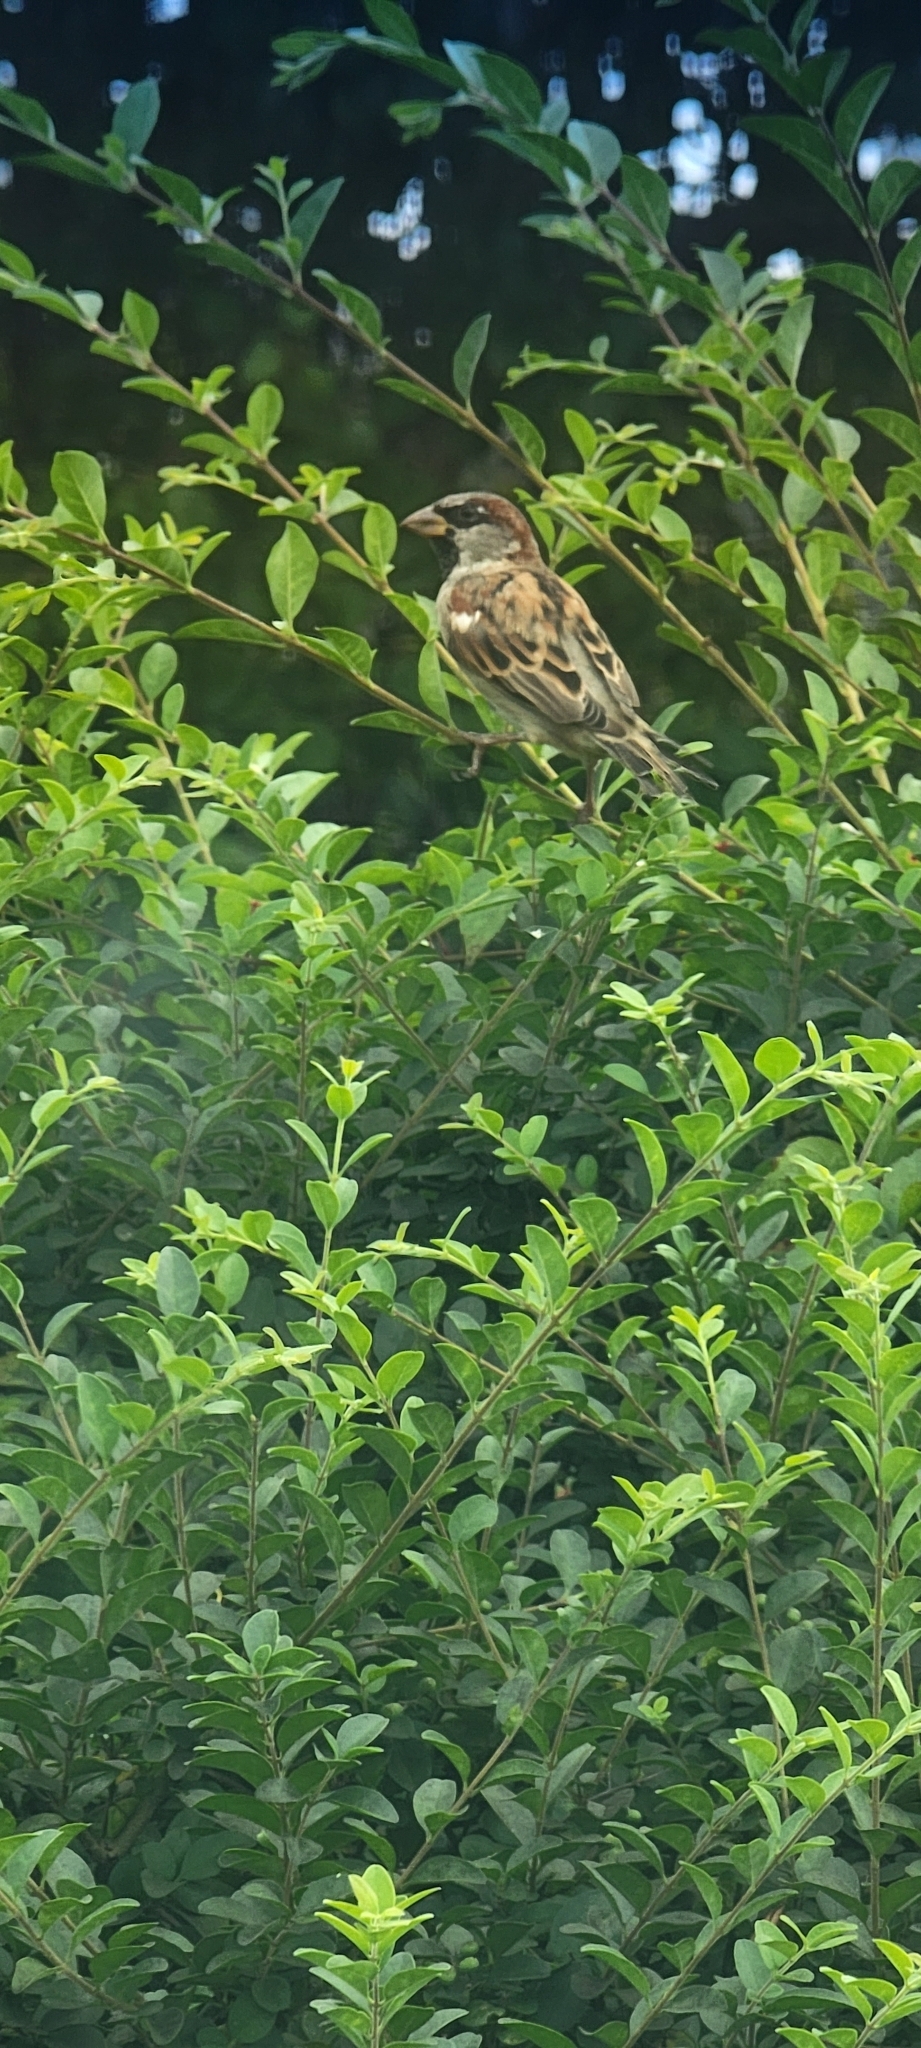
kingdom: Animalia
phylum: Chordata
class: Aves
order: Passeriformes
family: Passeridae
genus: Passer
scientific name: Passer domesticus
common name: House sparrow
